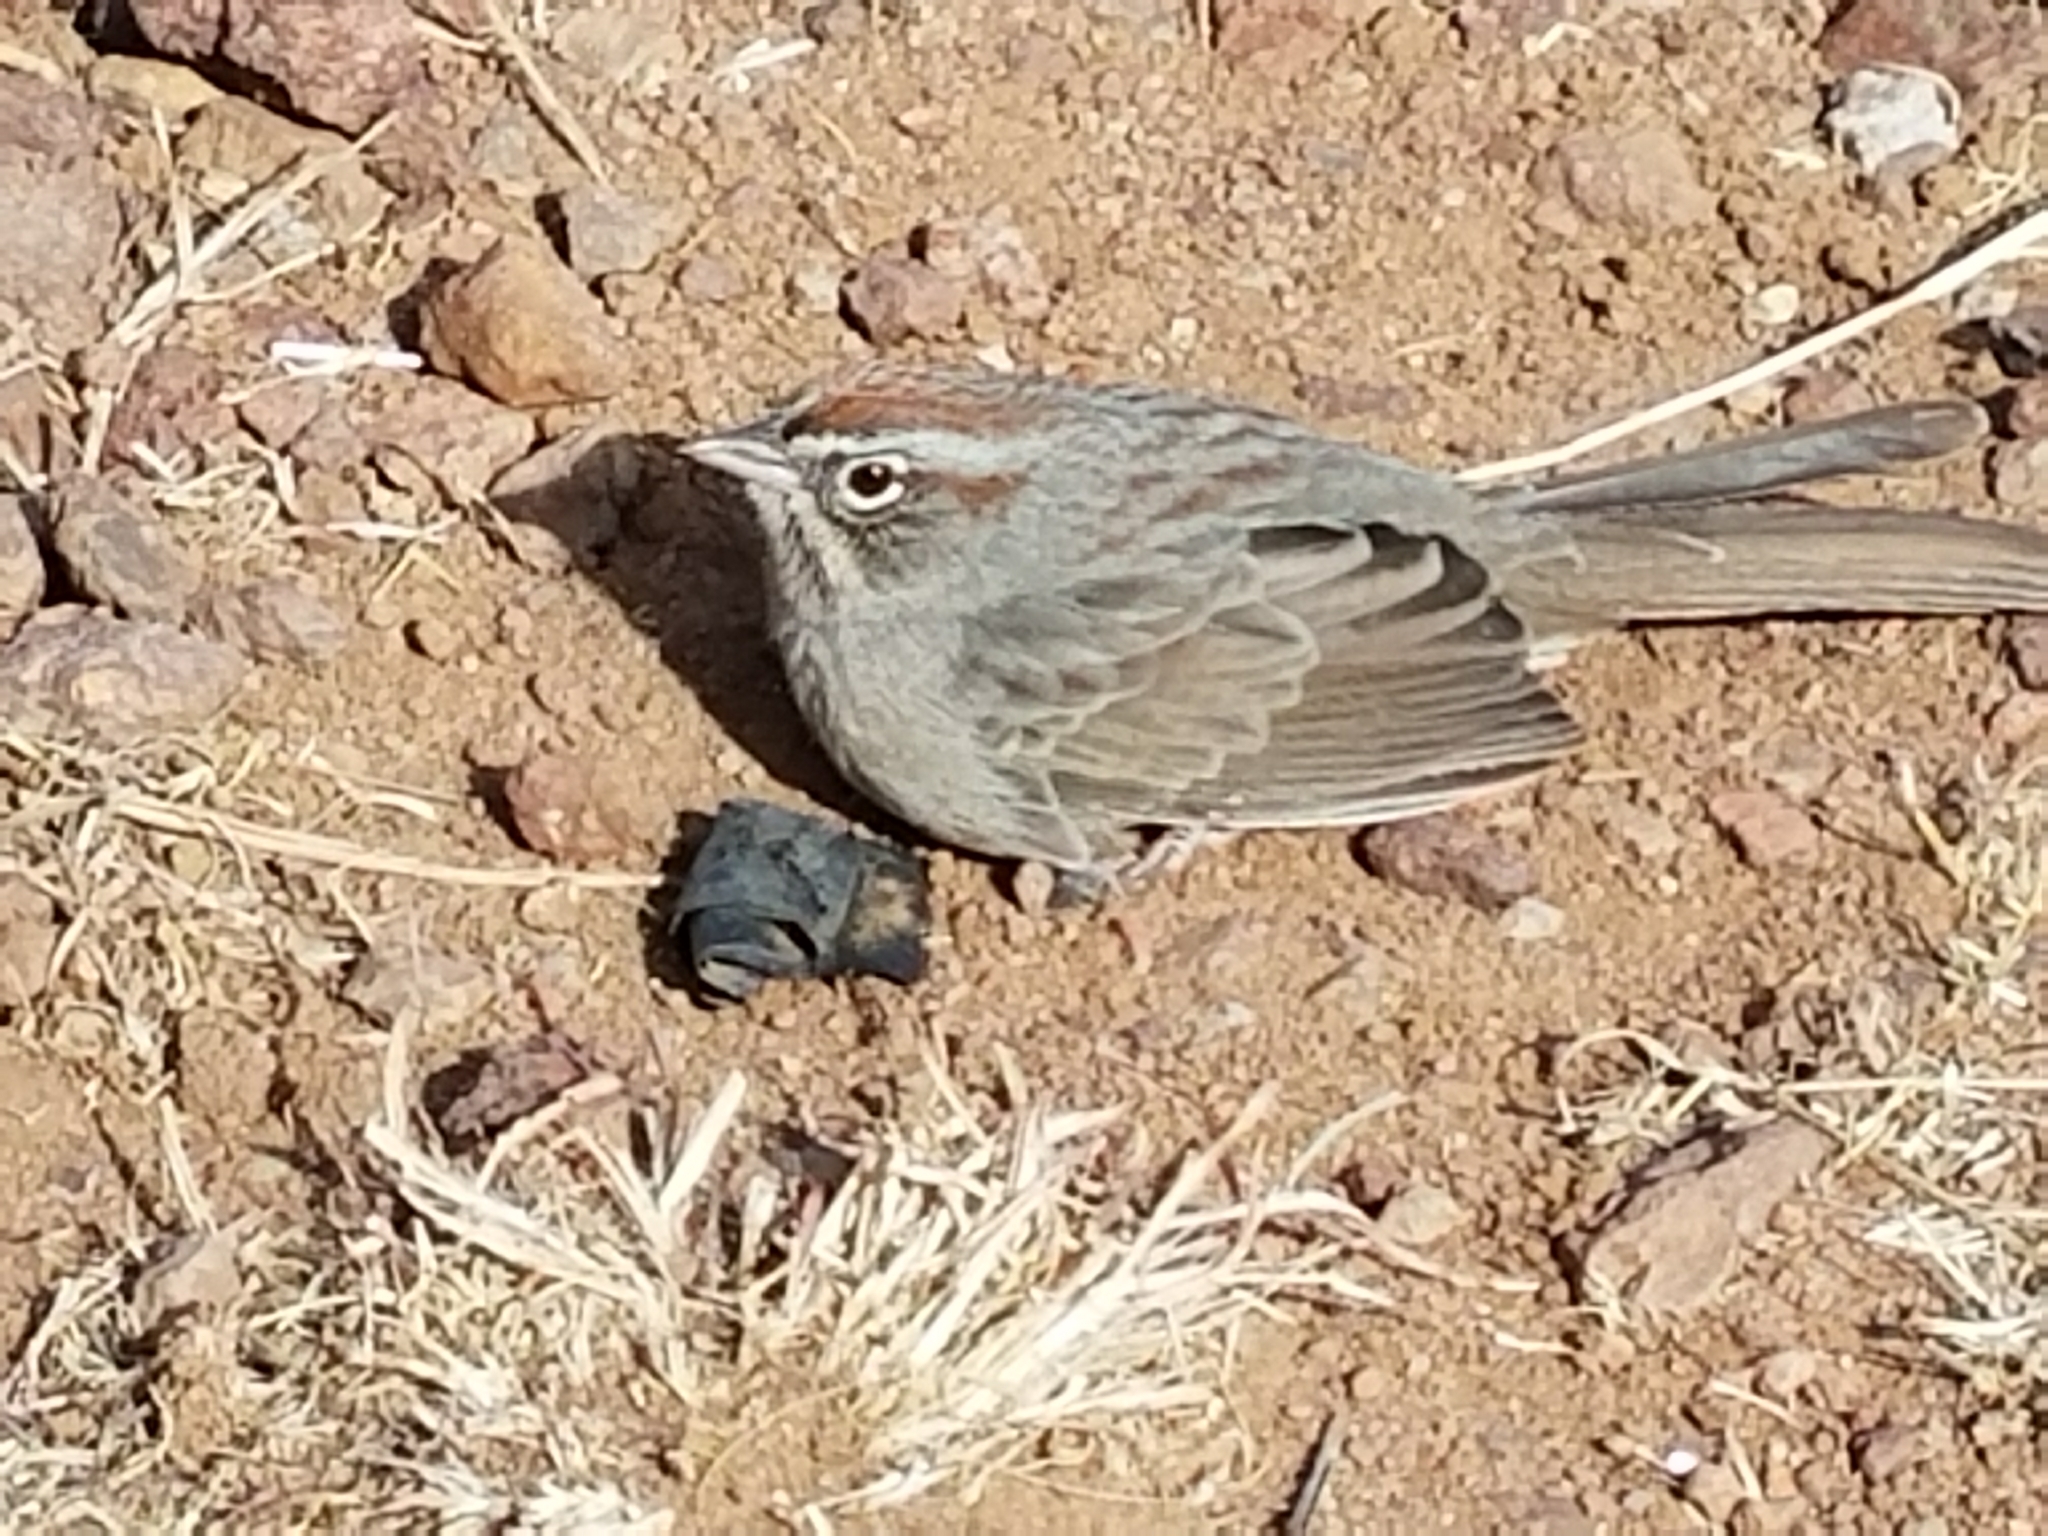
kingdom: Animalia
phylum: Chordata
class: Aves
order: Passeriformes
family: Passerellidae
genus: Aimophila
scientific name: Aimophila ruficeps
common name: Rufous-crowned sparrow
